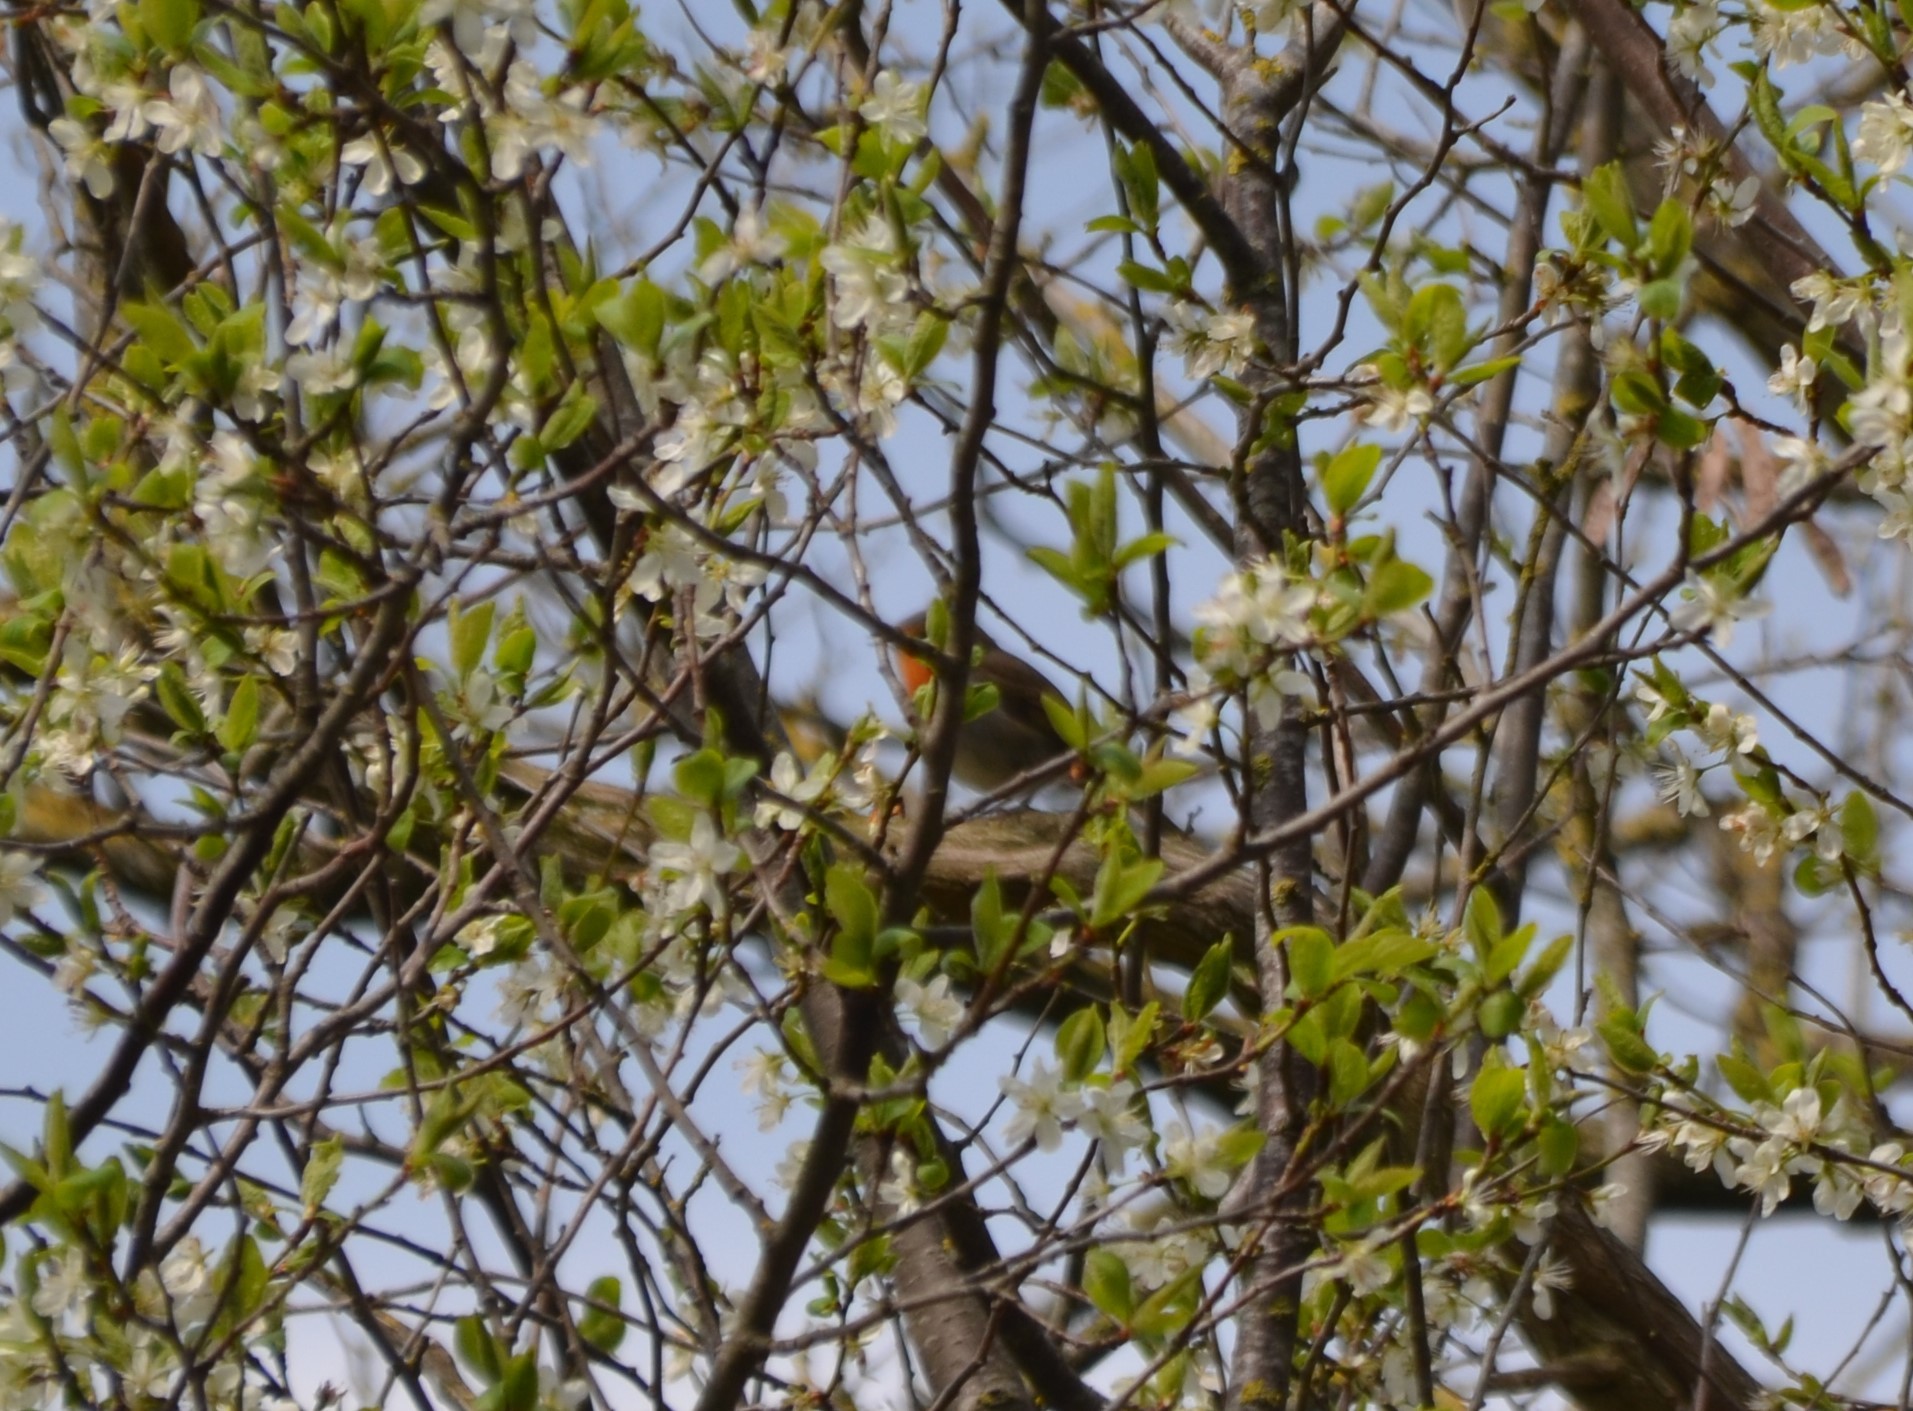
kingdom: Animalia
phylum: Chordata
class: Aves
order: Passeriformes
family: Muscicapidae
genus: Erithacus
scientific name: Erithacus rubecula
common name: European robin
